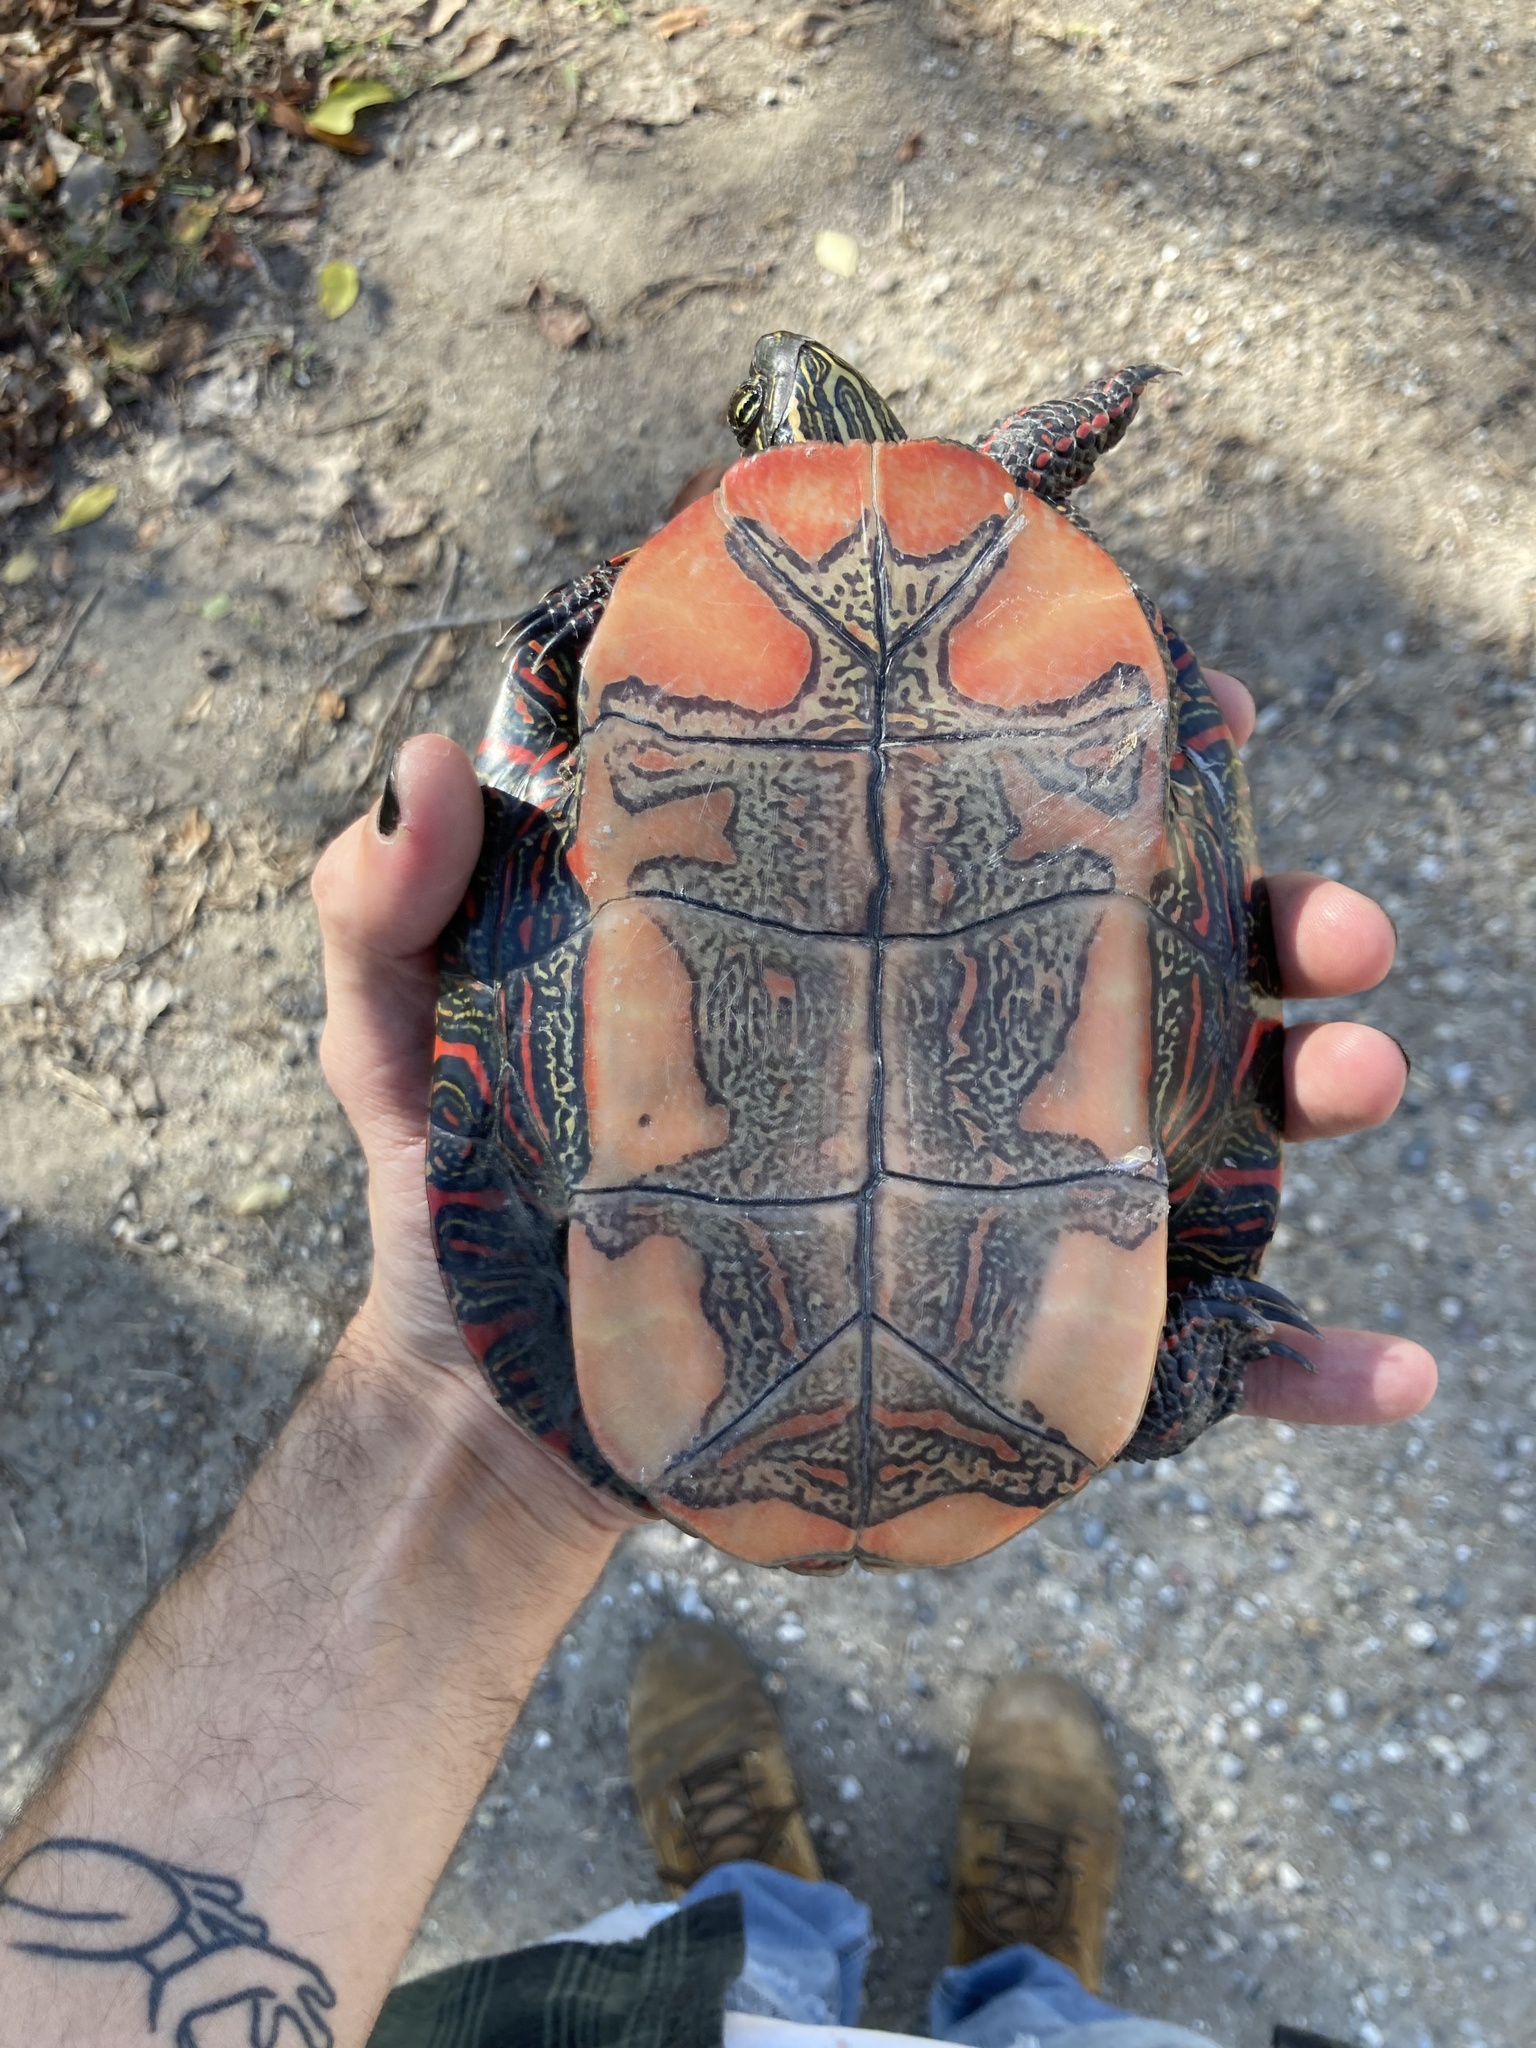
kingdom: Animalia
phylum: Chordata
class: Testudines
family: Emydidae
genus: Chrysemys
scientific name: Chrysemys picta
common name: Painted turtle
